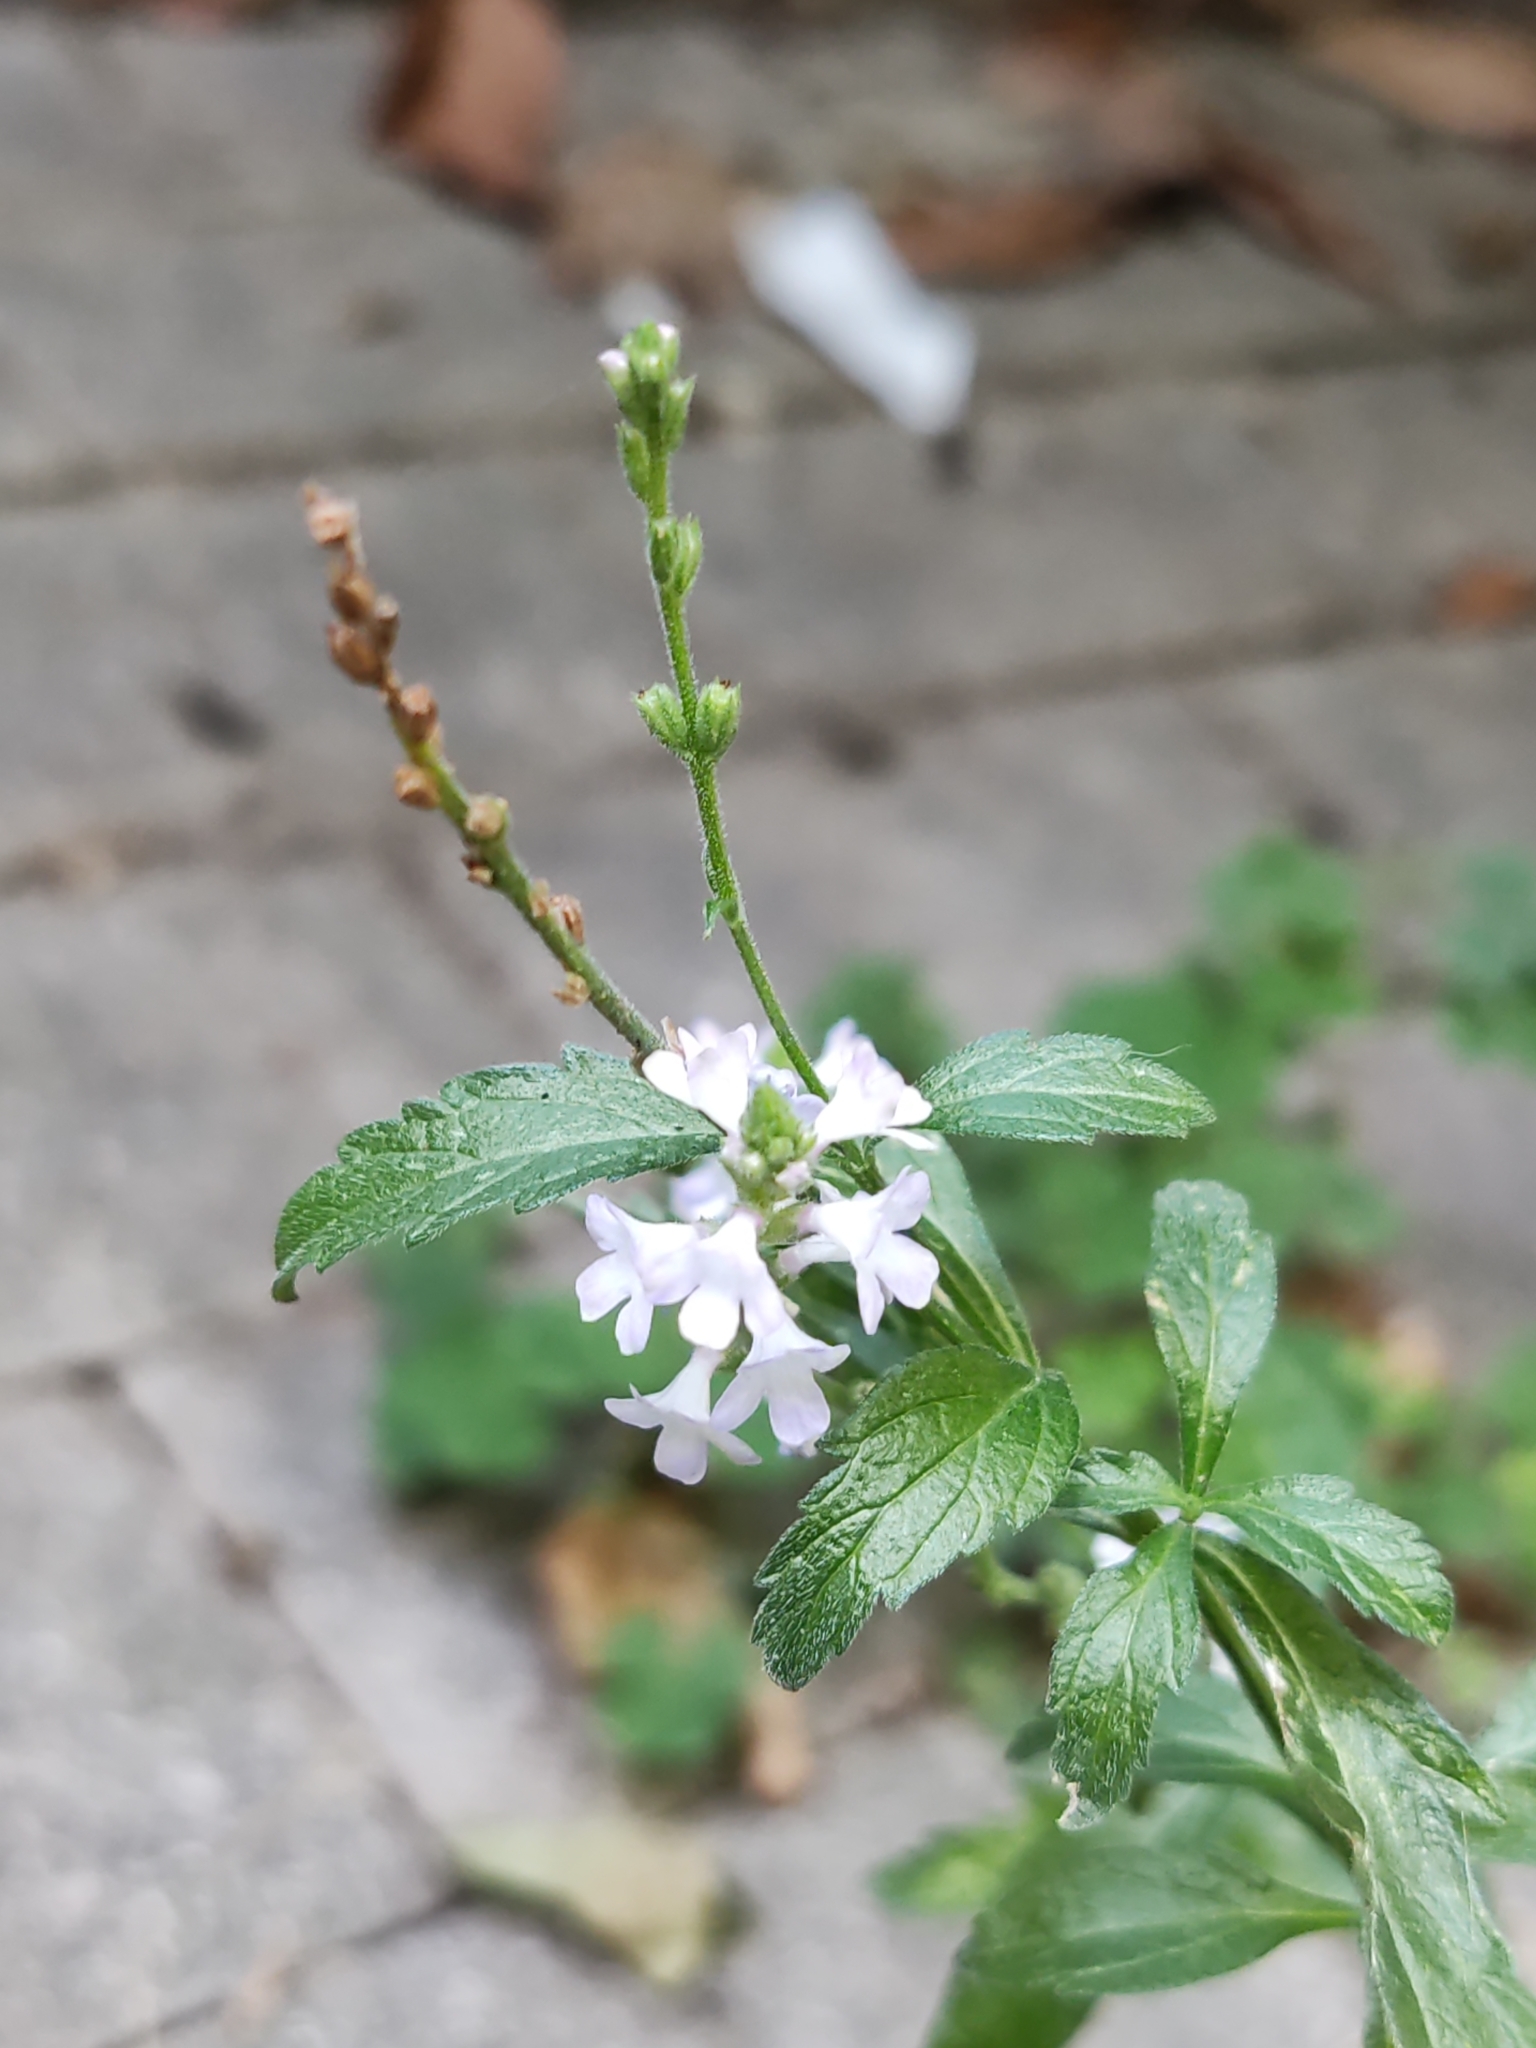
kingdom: Plantae
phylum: Tracheophyta
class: Magnoliopsida
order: Lamiales
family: Verbenaceae
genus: Verbena
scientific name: Verbena officinalis
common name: Vervain
